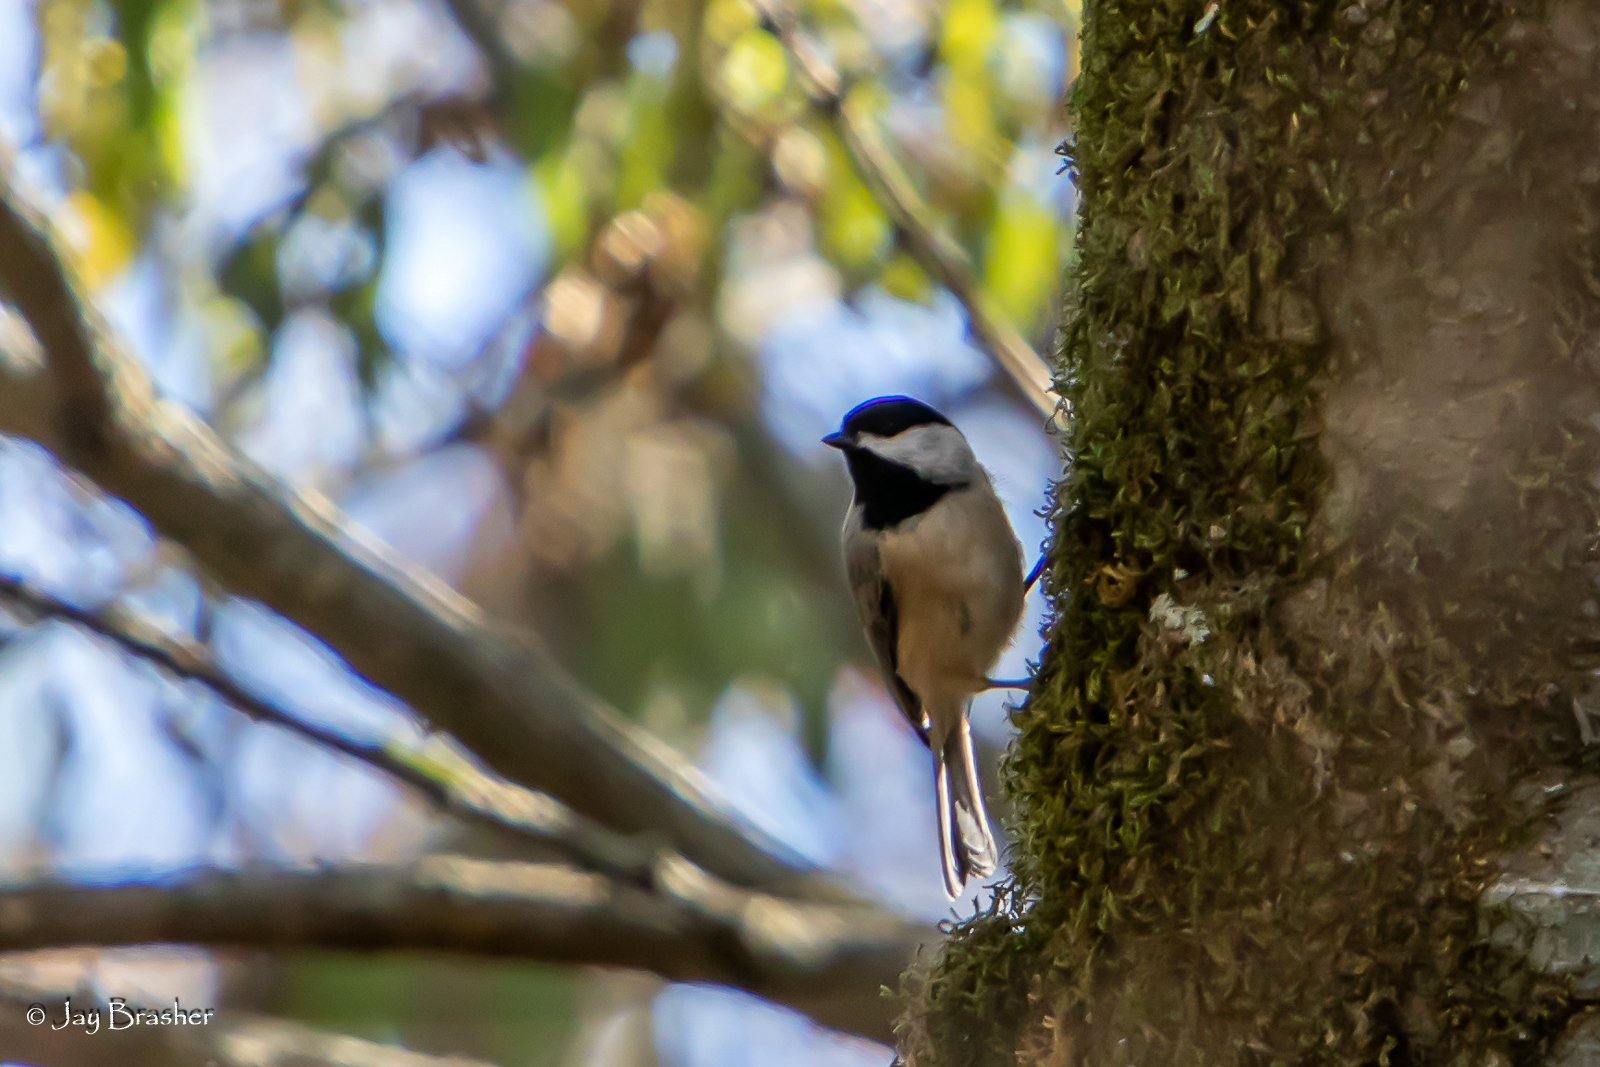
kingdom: Animalia
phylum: Chordata
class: Aves
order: Passeriformes
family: Paridae
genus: Poecile
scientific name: Poecile carolinensis
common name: Carolina chickadee
